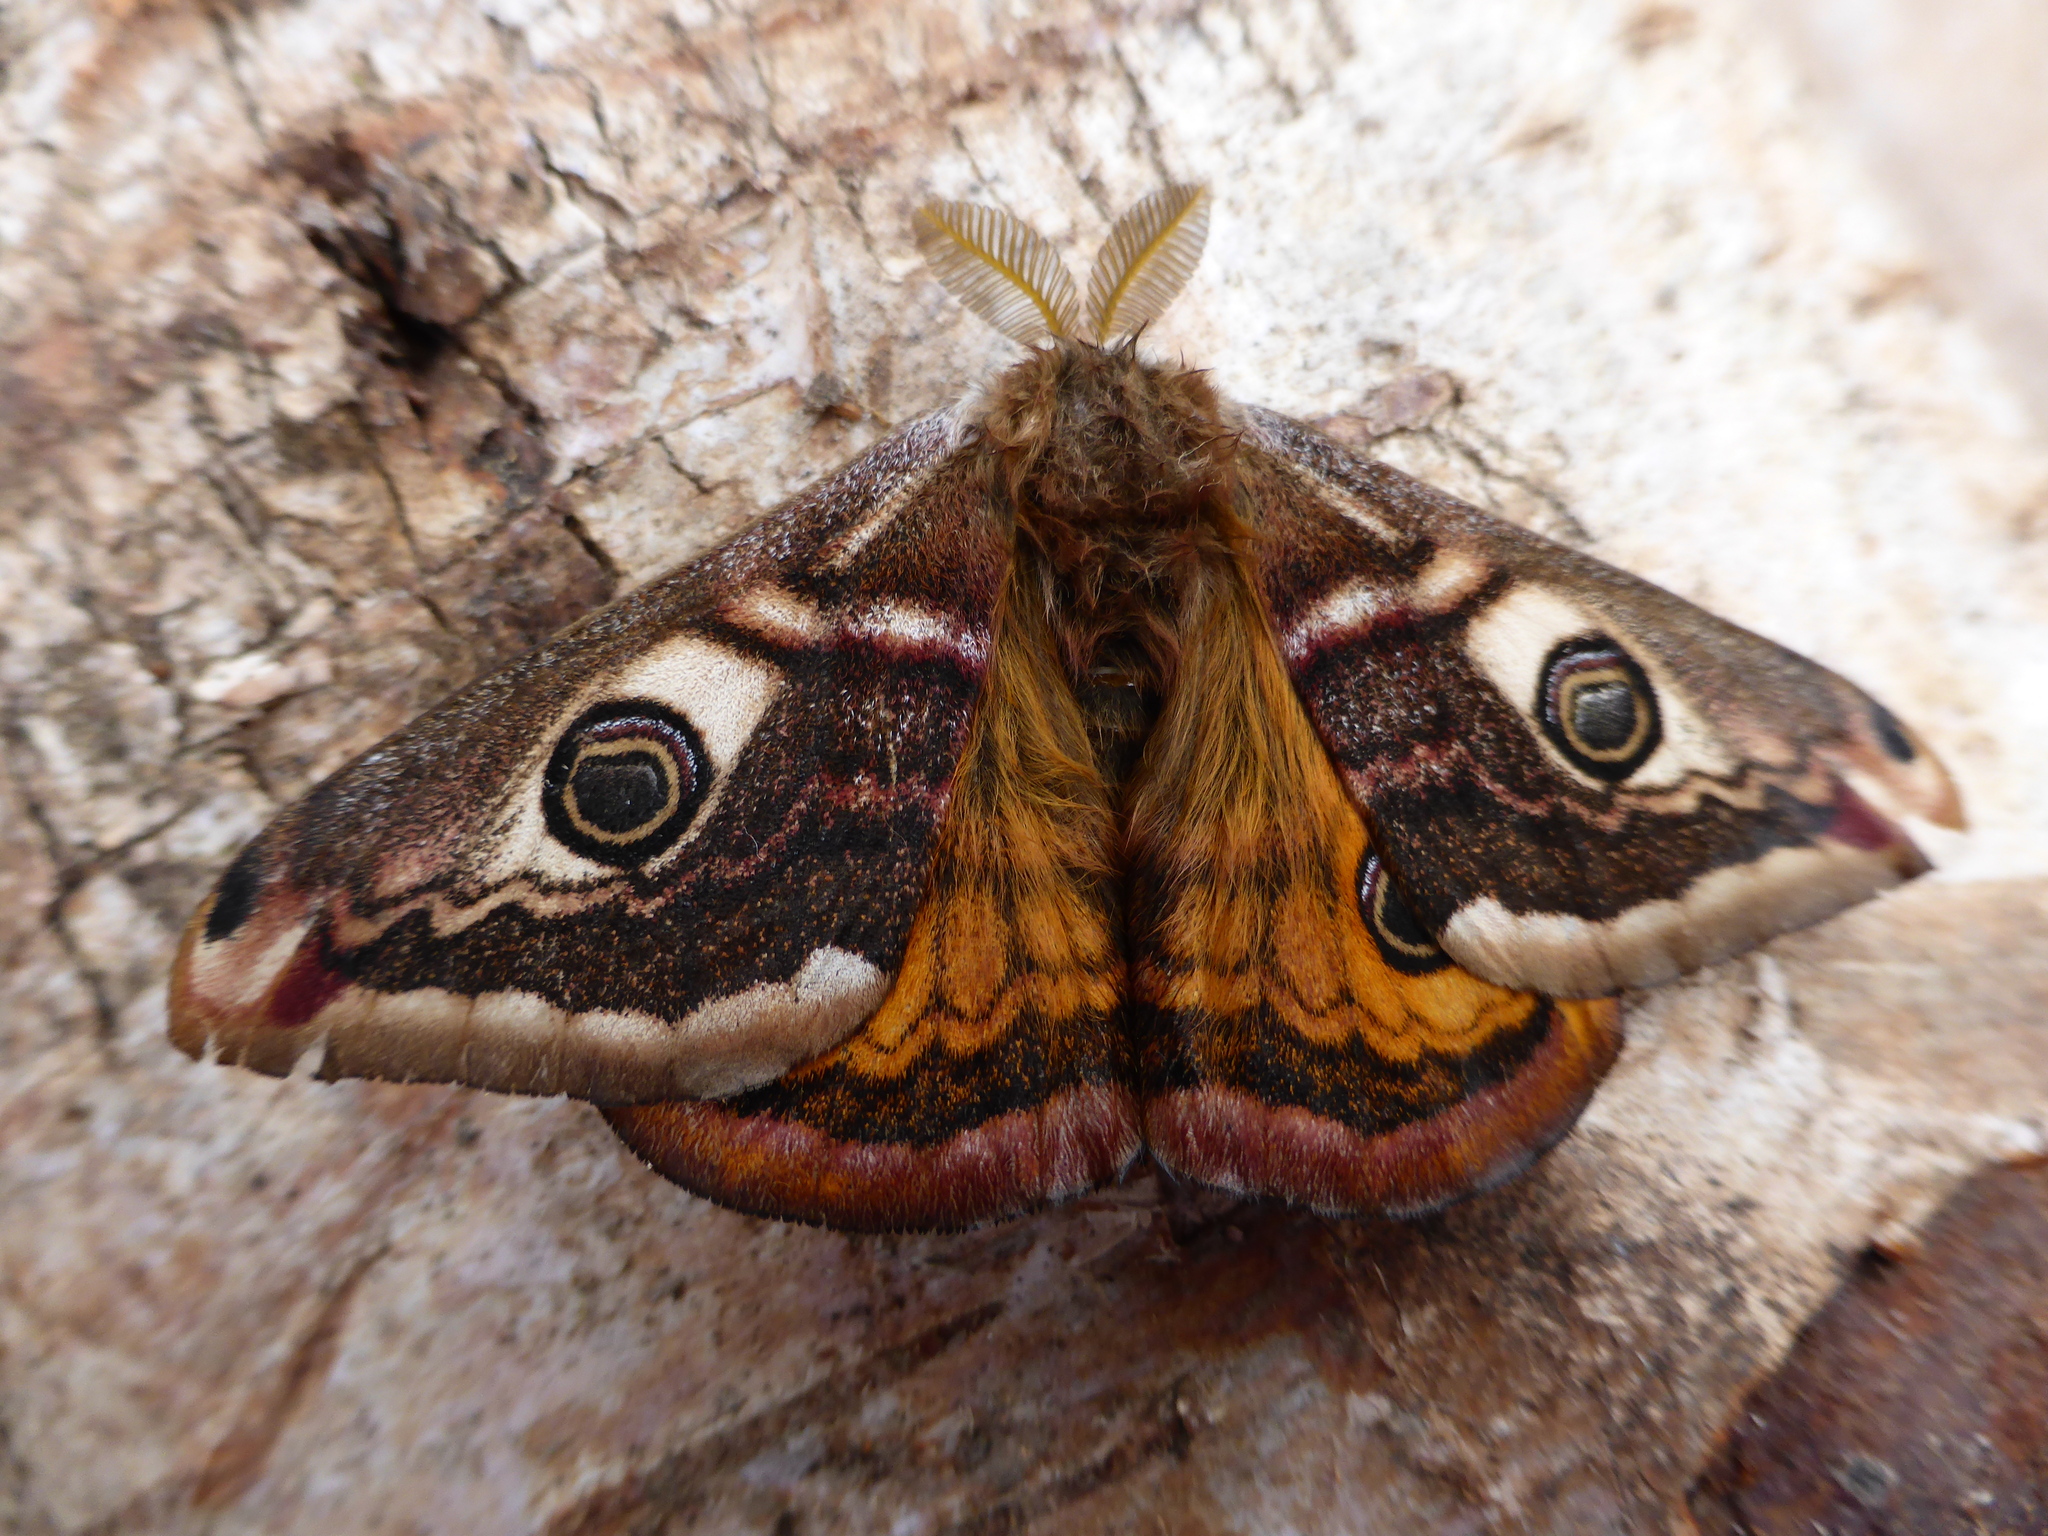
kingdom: Animalia
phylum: Arthropoda
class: Insecta
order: Lepidoptera
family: Saturniidae
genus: Saturnia
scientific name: Saturnia pavonia
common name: Emperor moth
